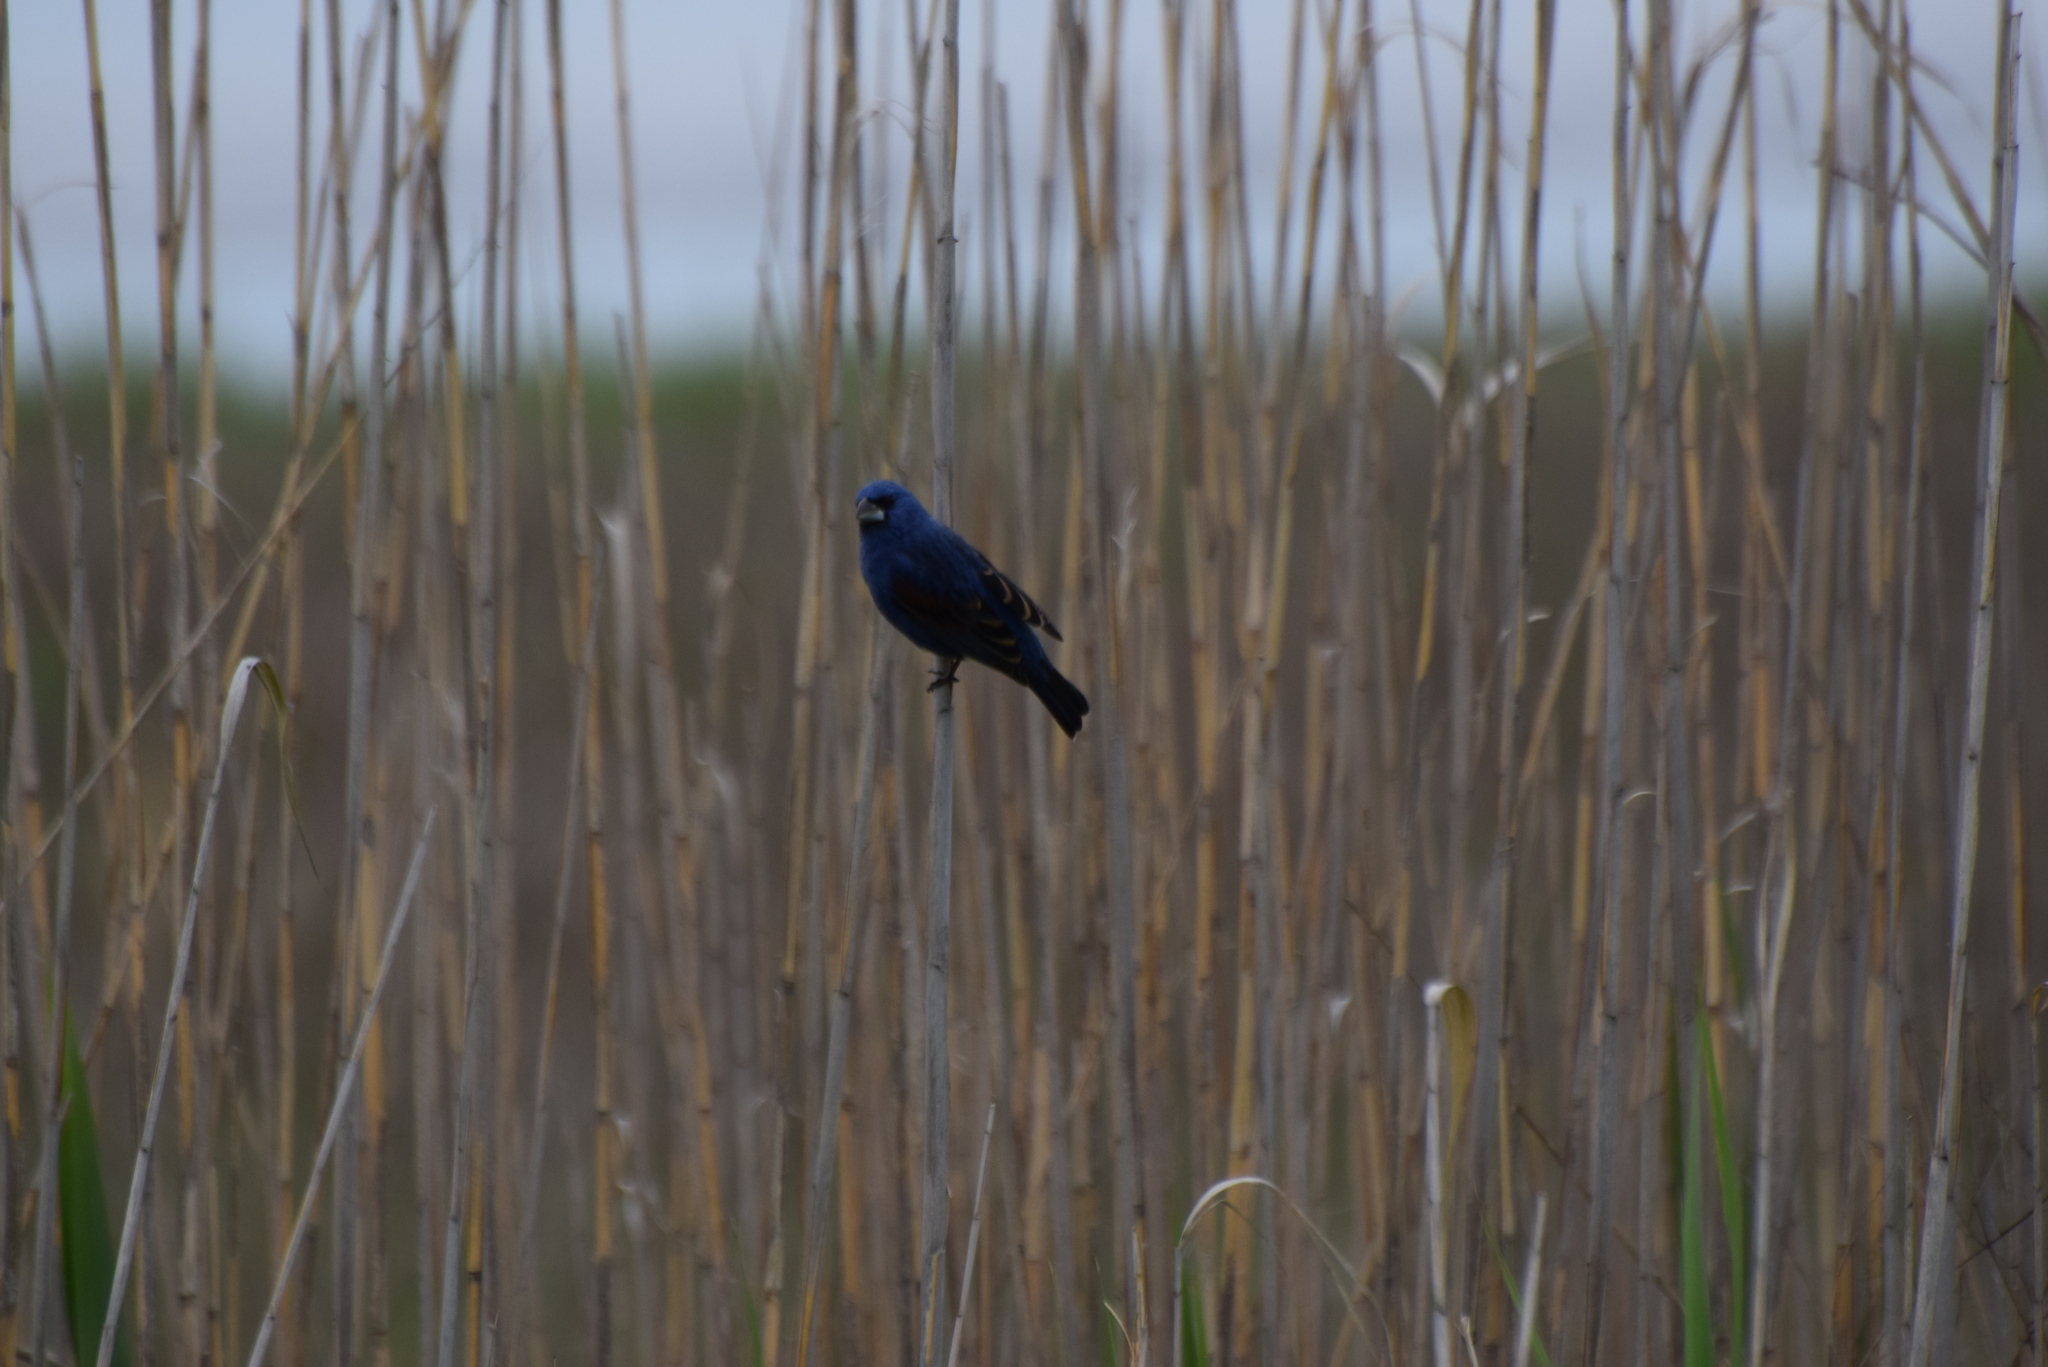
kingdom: Animalia
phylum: Chordata
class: Aves
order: Passeriformes
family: Cardinalidae
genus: Passerina
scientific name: Passerina caerulea
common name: Blue grosbeak
